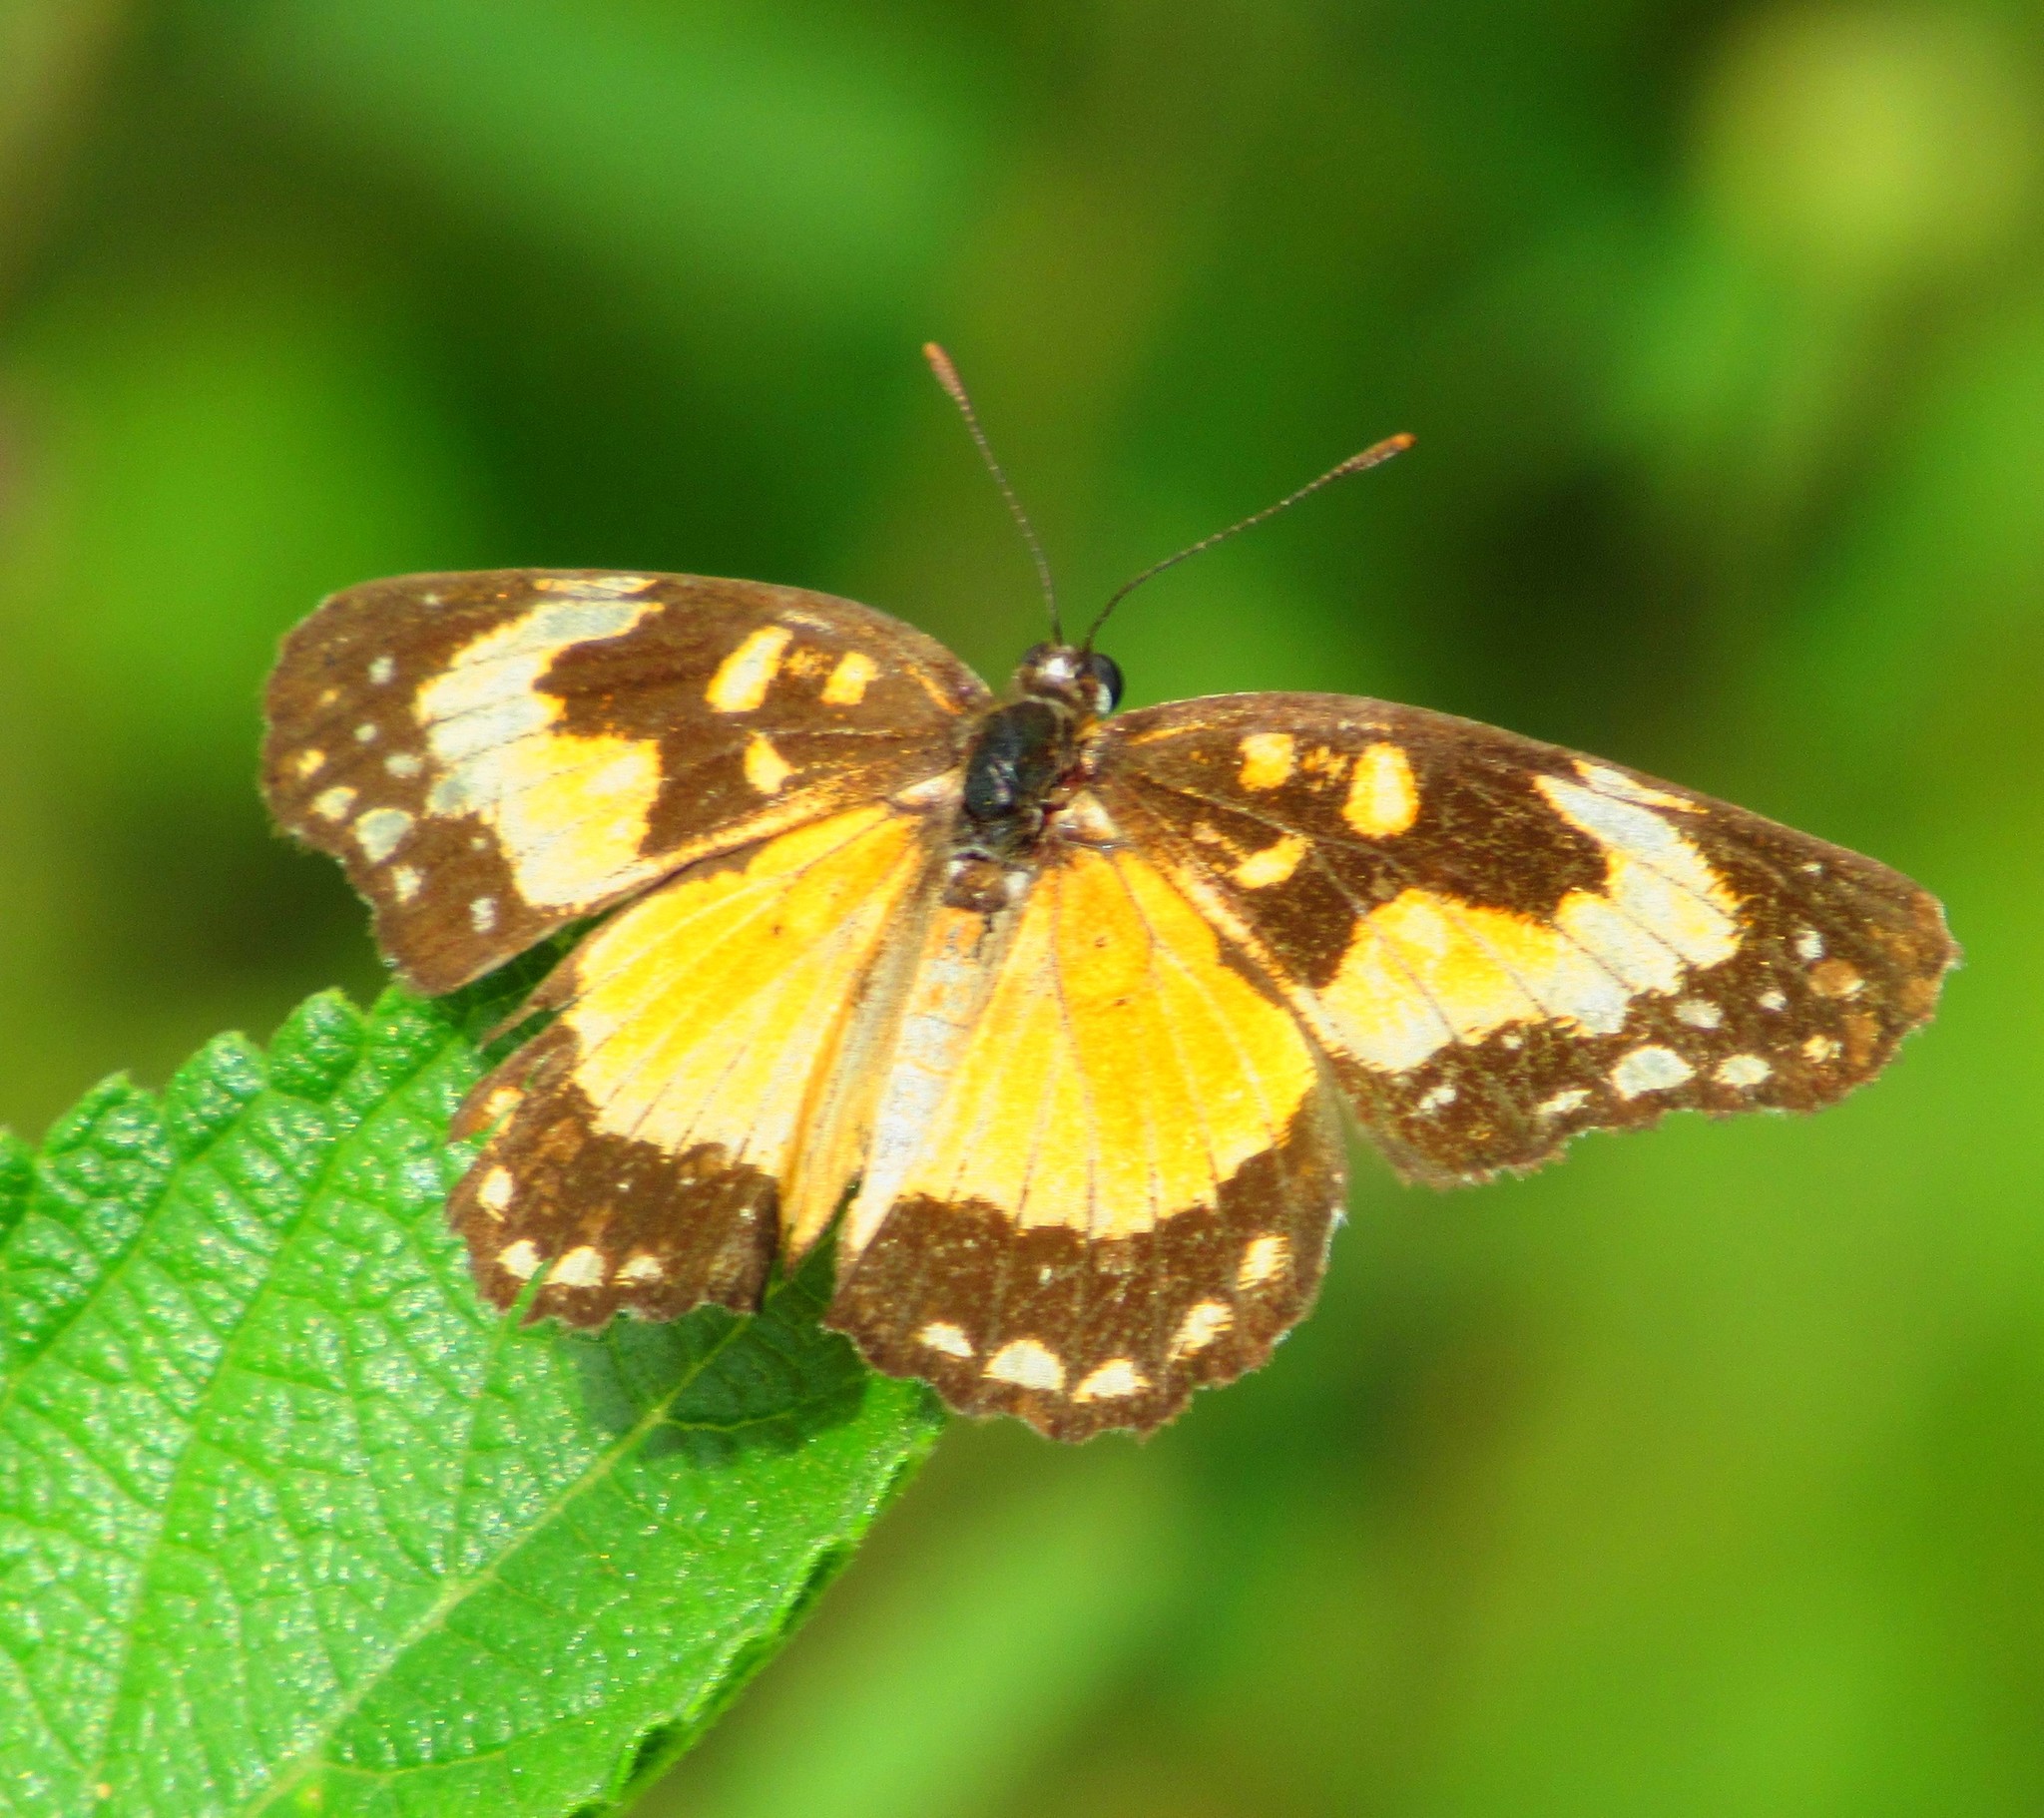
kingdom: Animalia
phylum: Arthropoda
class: Insecta
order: Lepidoptera
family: Nymphalidae
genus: Chlosyne
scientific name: Chlosyne lacinia
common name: Bordered patch
